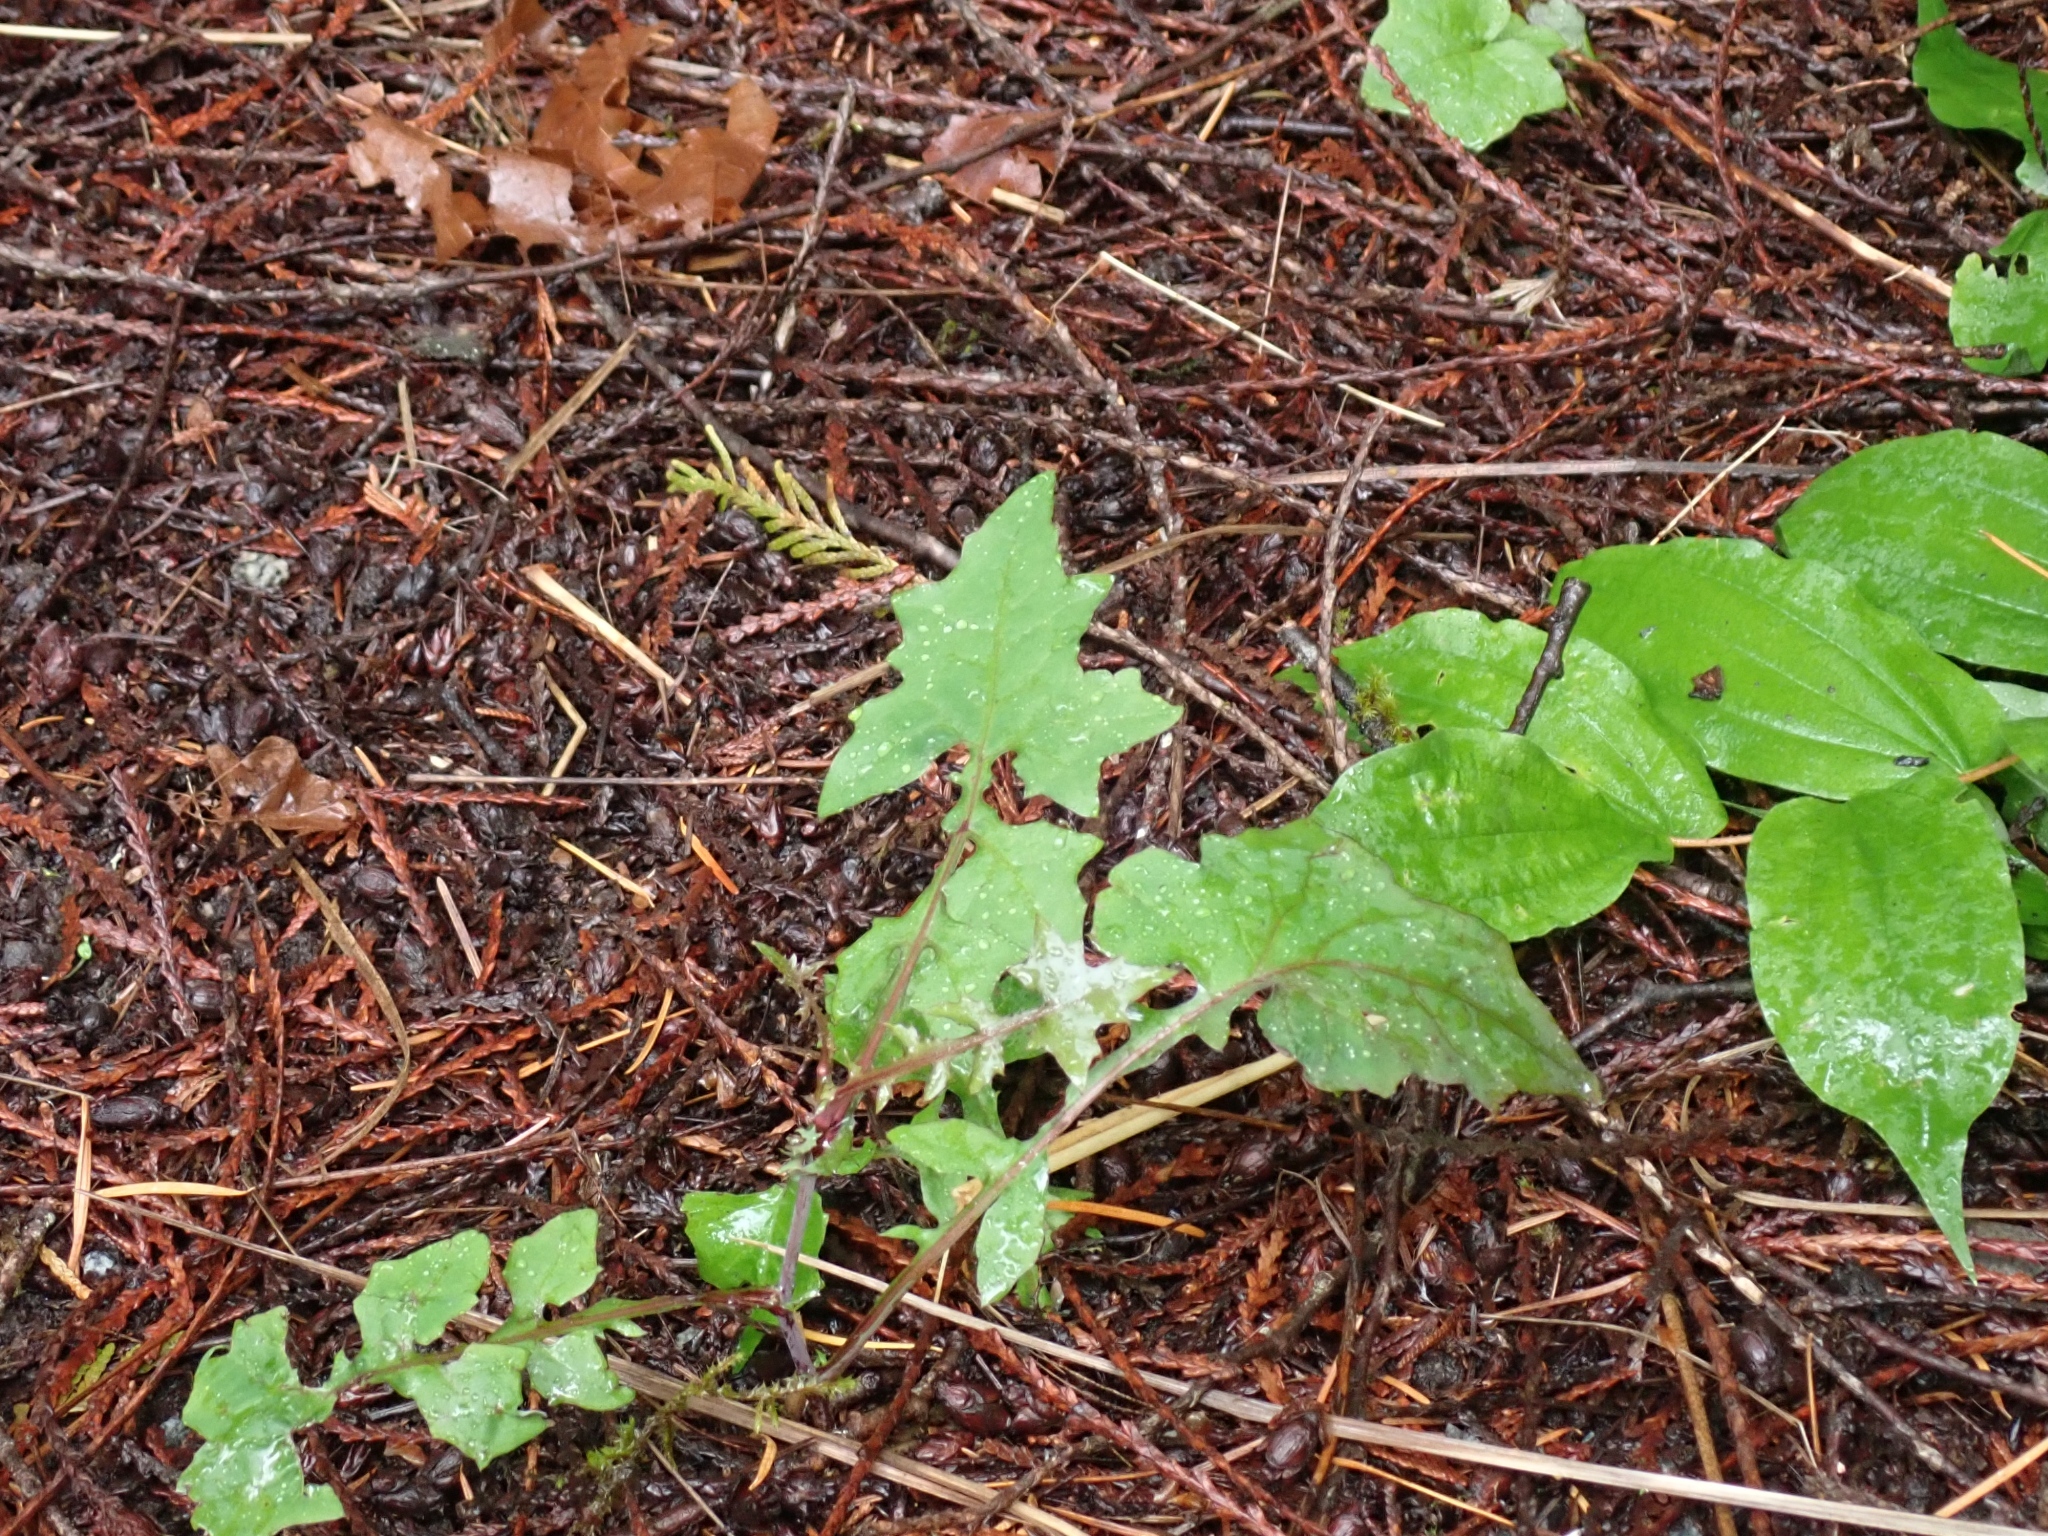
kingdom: Plantae
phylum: Tracheophyta
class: Magnoliopsida
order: Asterales
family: Asteraceae
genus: Mycelis
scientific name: Mycelis muralis
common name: Wall lettuce
